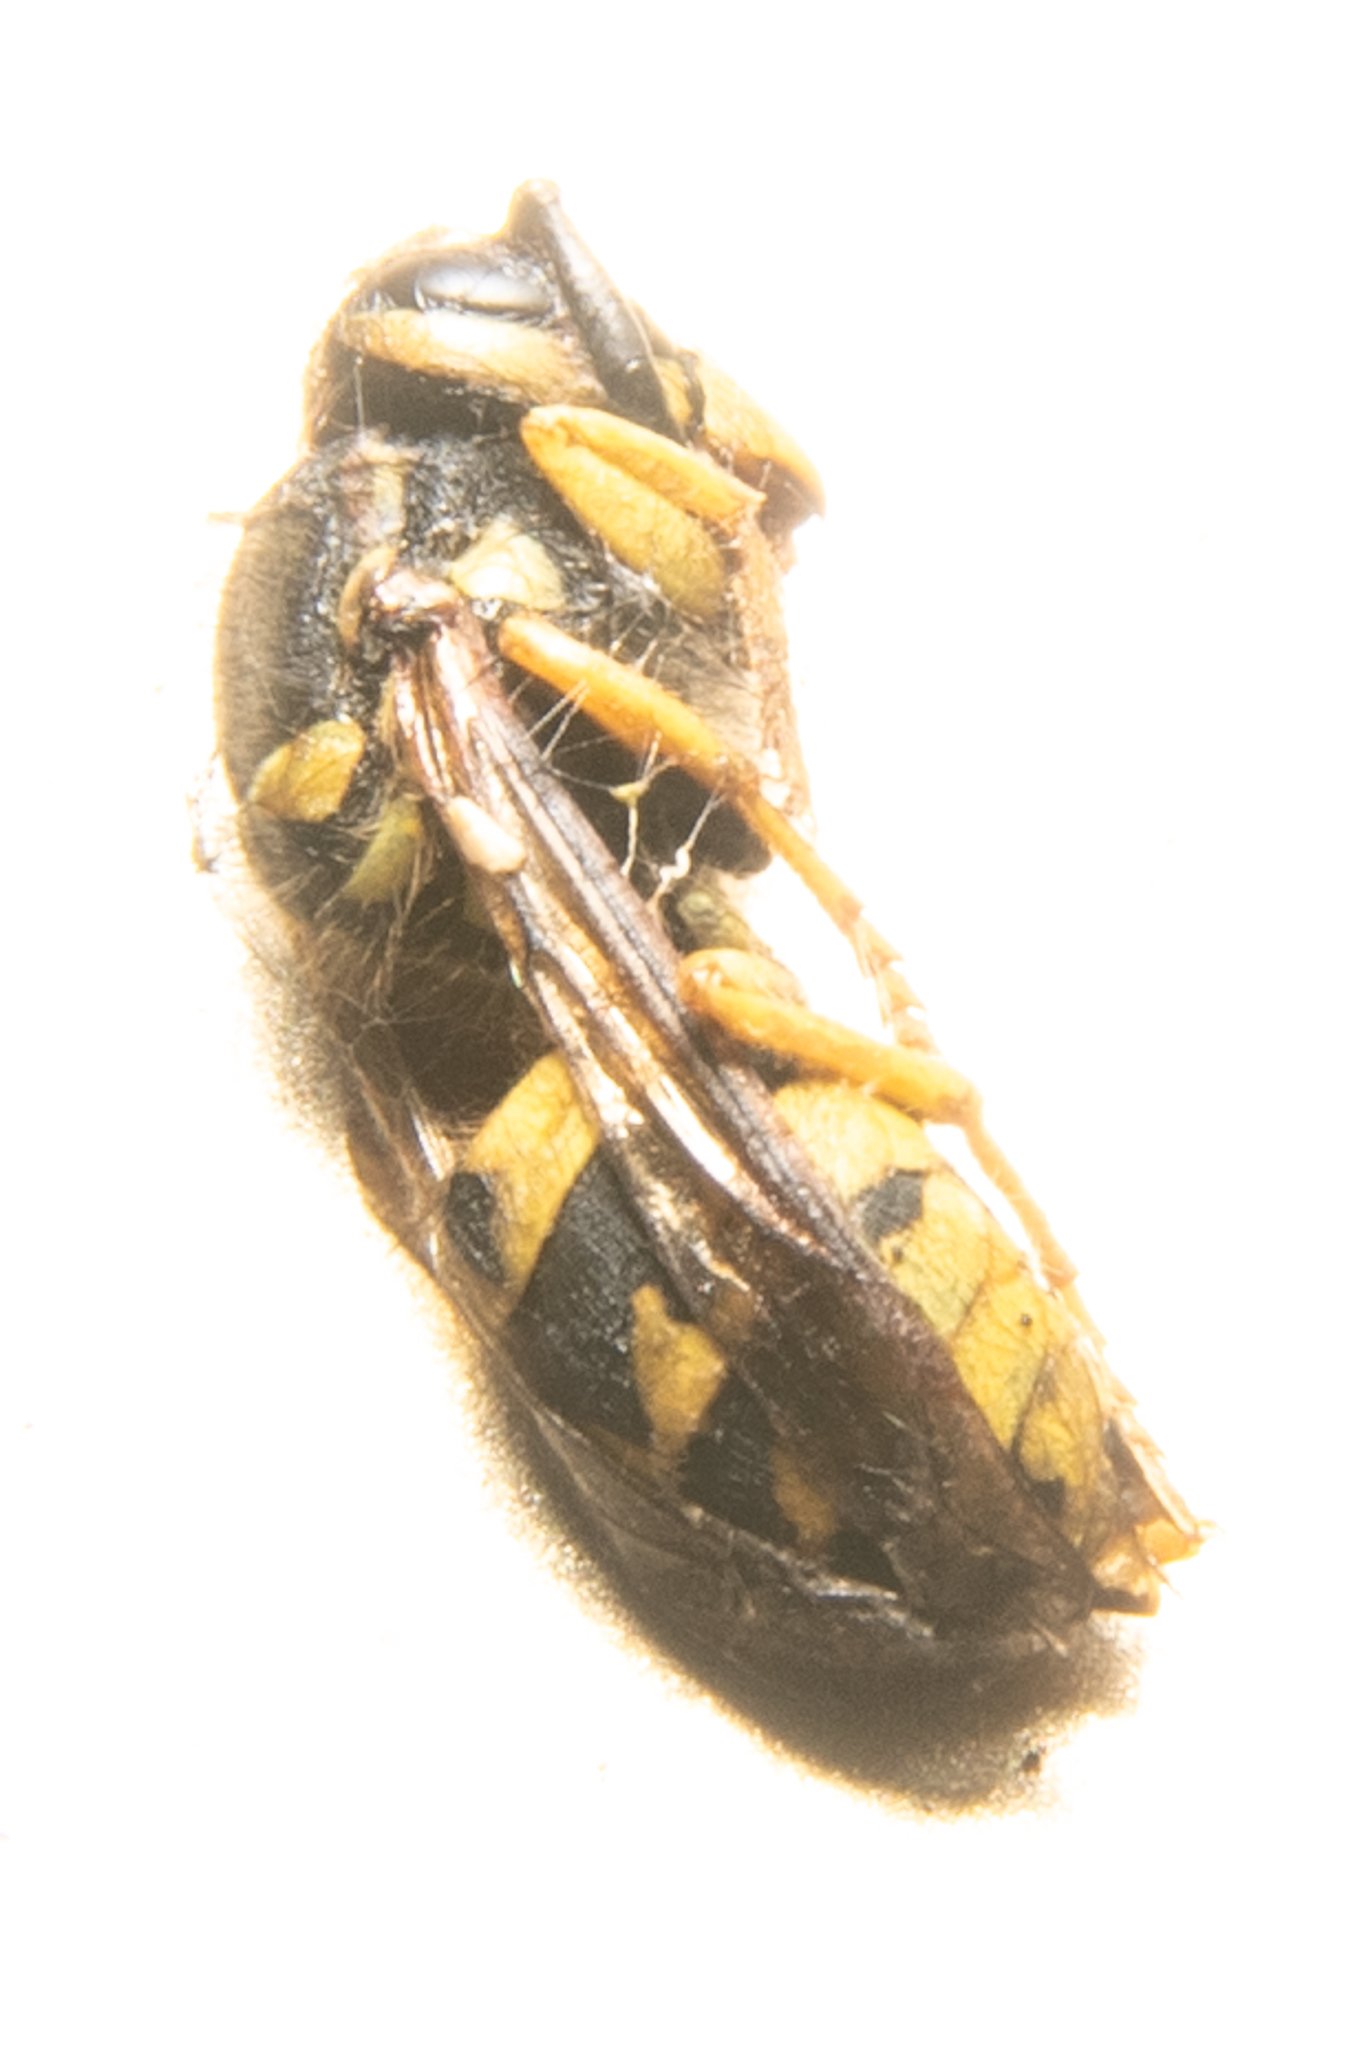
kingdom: Animalia
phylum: Arthropoda
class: Insecta
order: Hymenoptera
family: Vespidae
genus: Vespula
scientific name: Vespula pensylvanica
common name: Western yellowjacket
